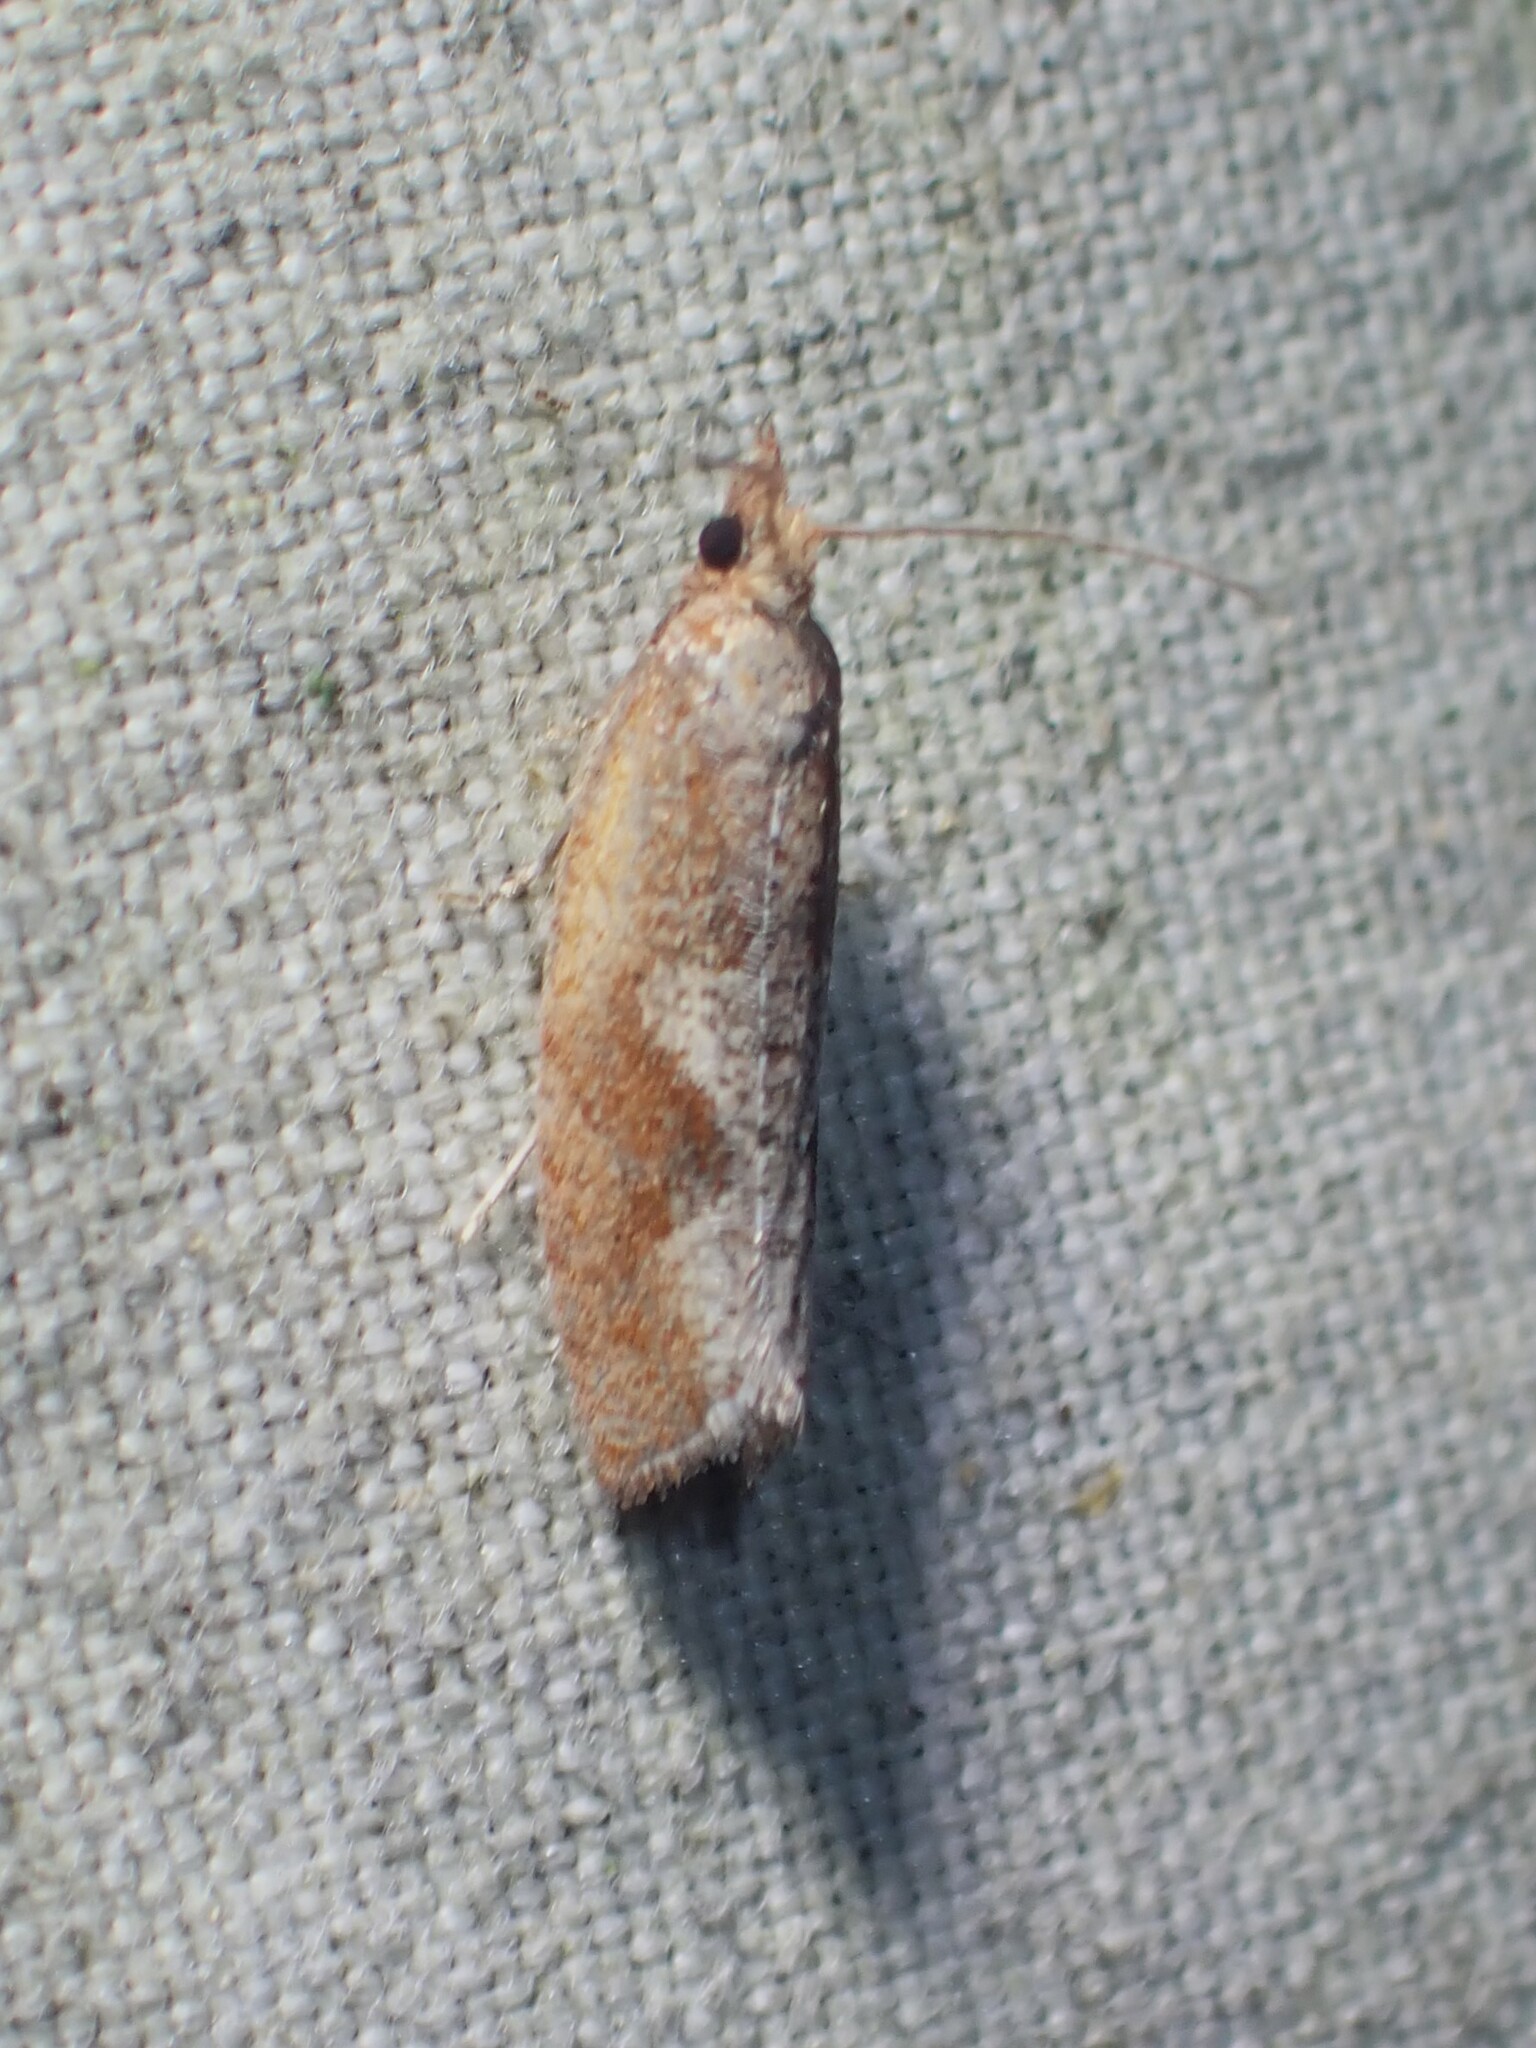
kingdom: Animalia
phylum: Arthropoda
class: Insecta
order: Lepidoptera
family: Tortricidae
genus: Epinotia
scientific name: Epinotia septemberana
